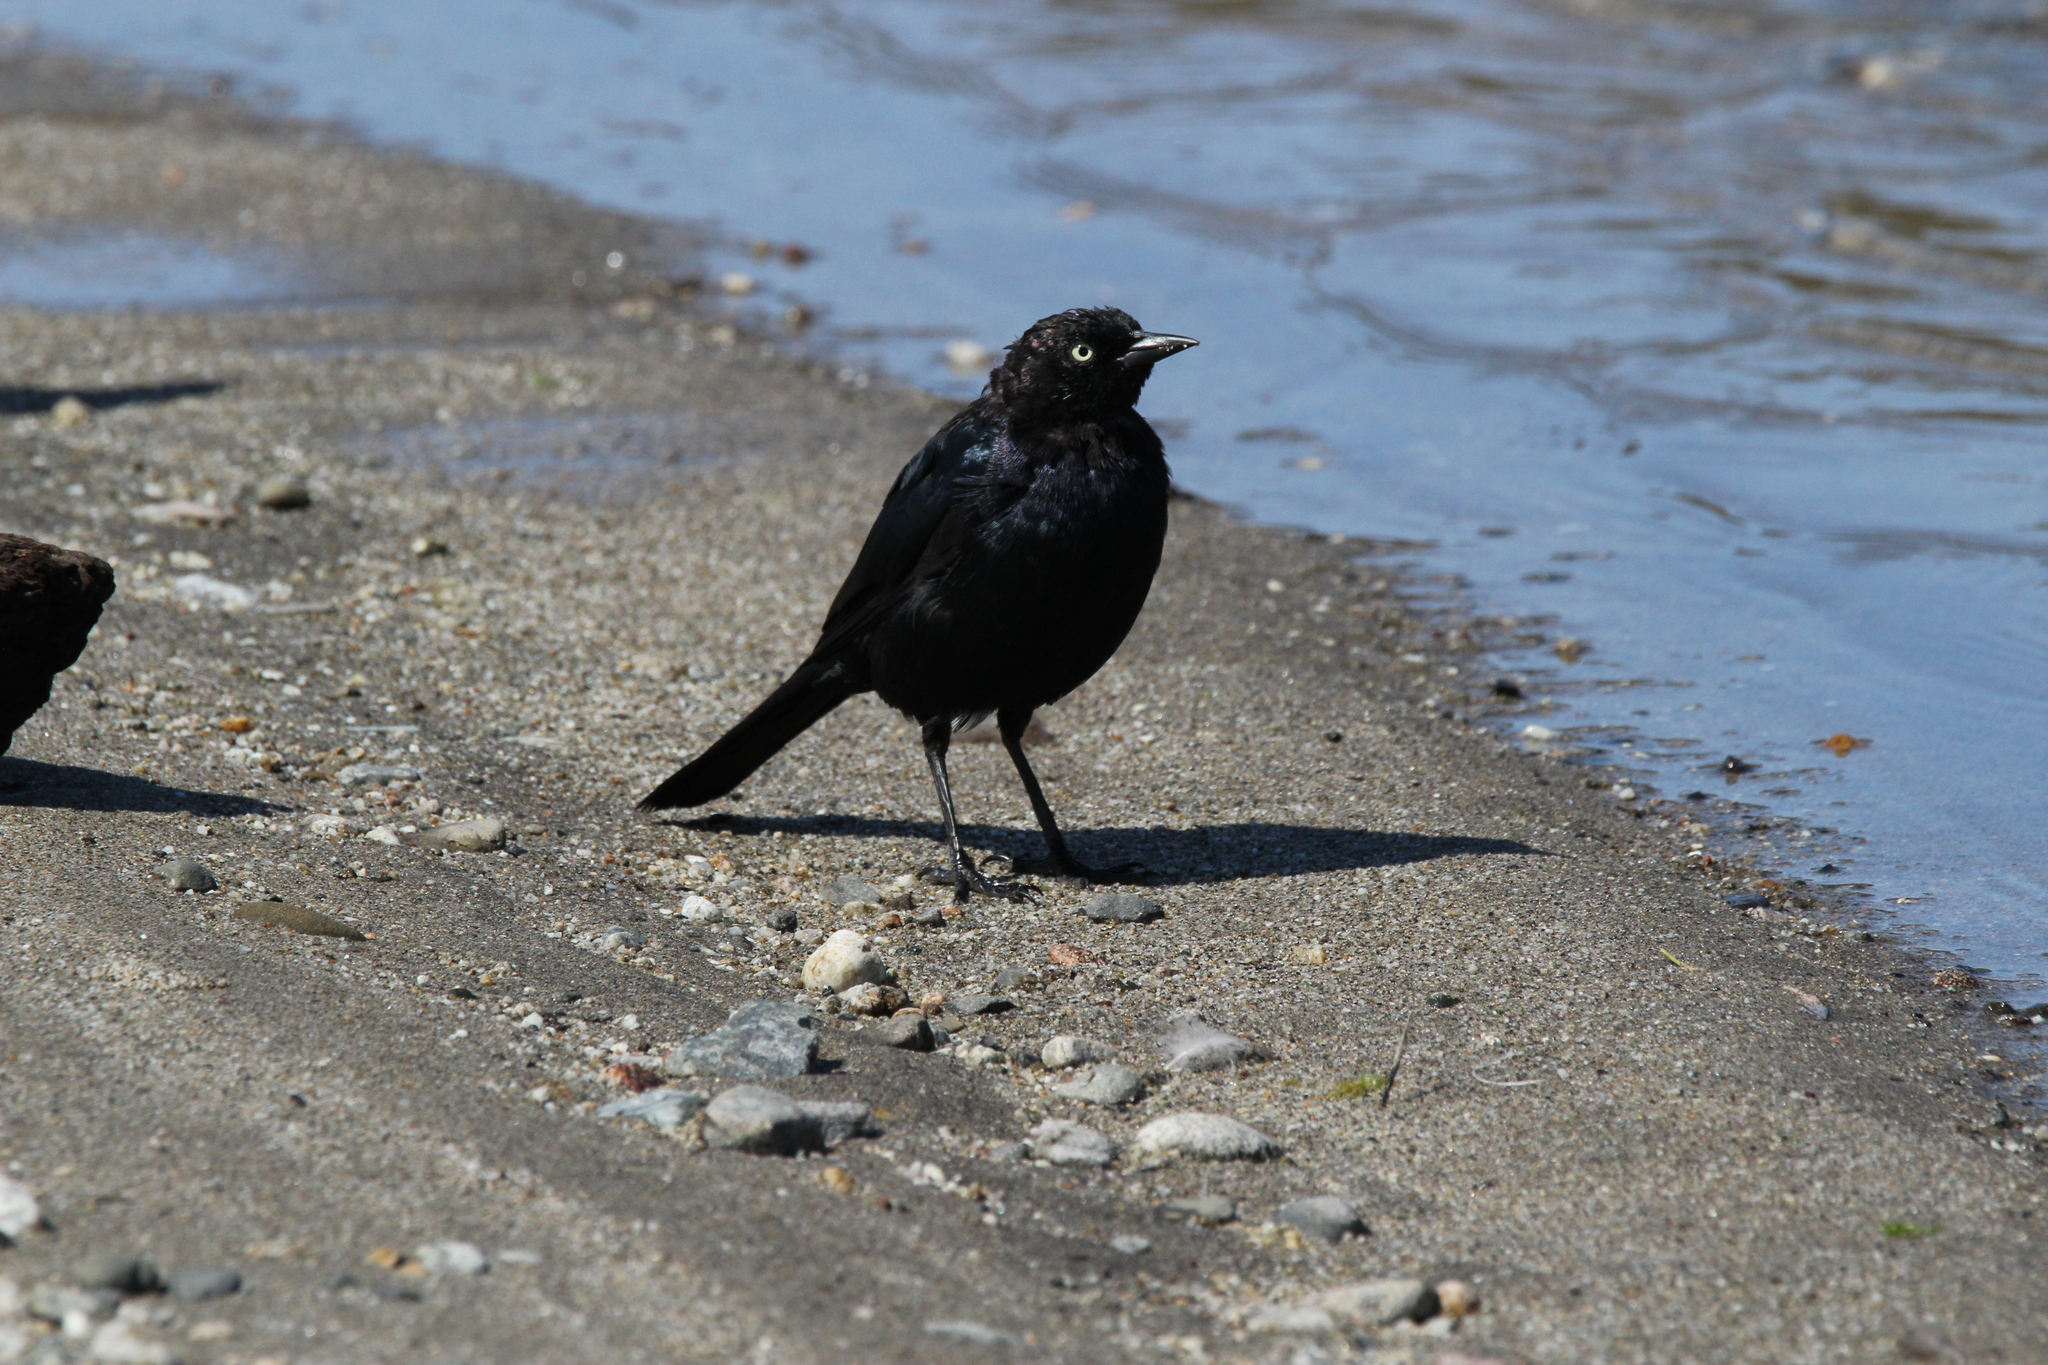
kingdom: Animalia
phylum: Chordata
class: Aves
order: Passeriformes
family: Icteridae
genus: Euphagus
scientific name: Euphagus cyanocephalus
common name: Brewer's blackbird
